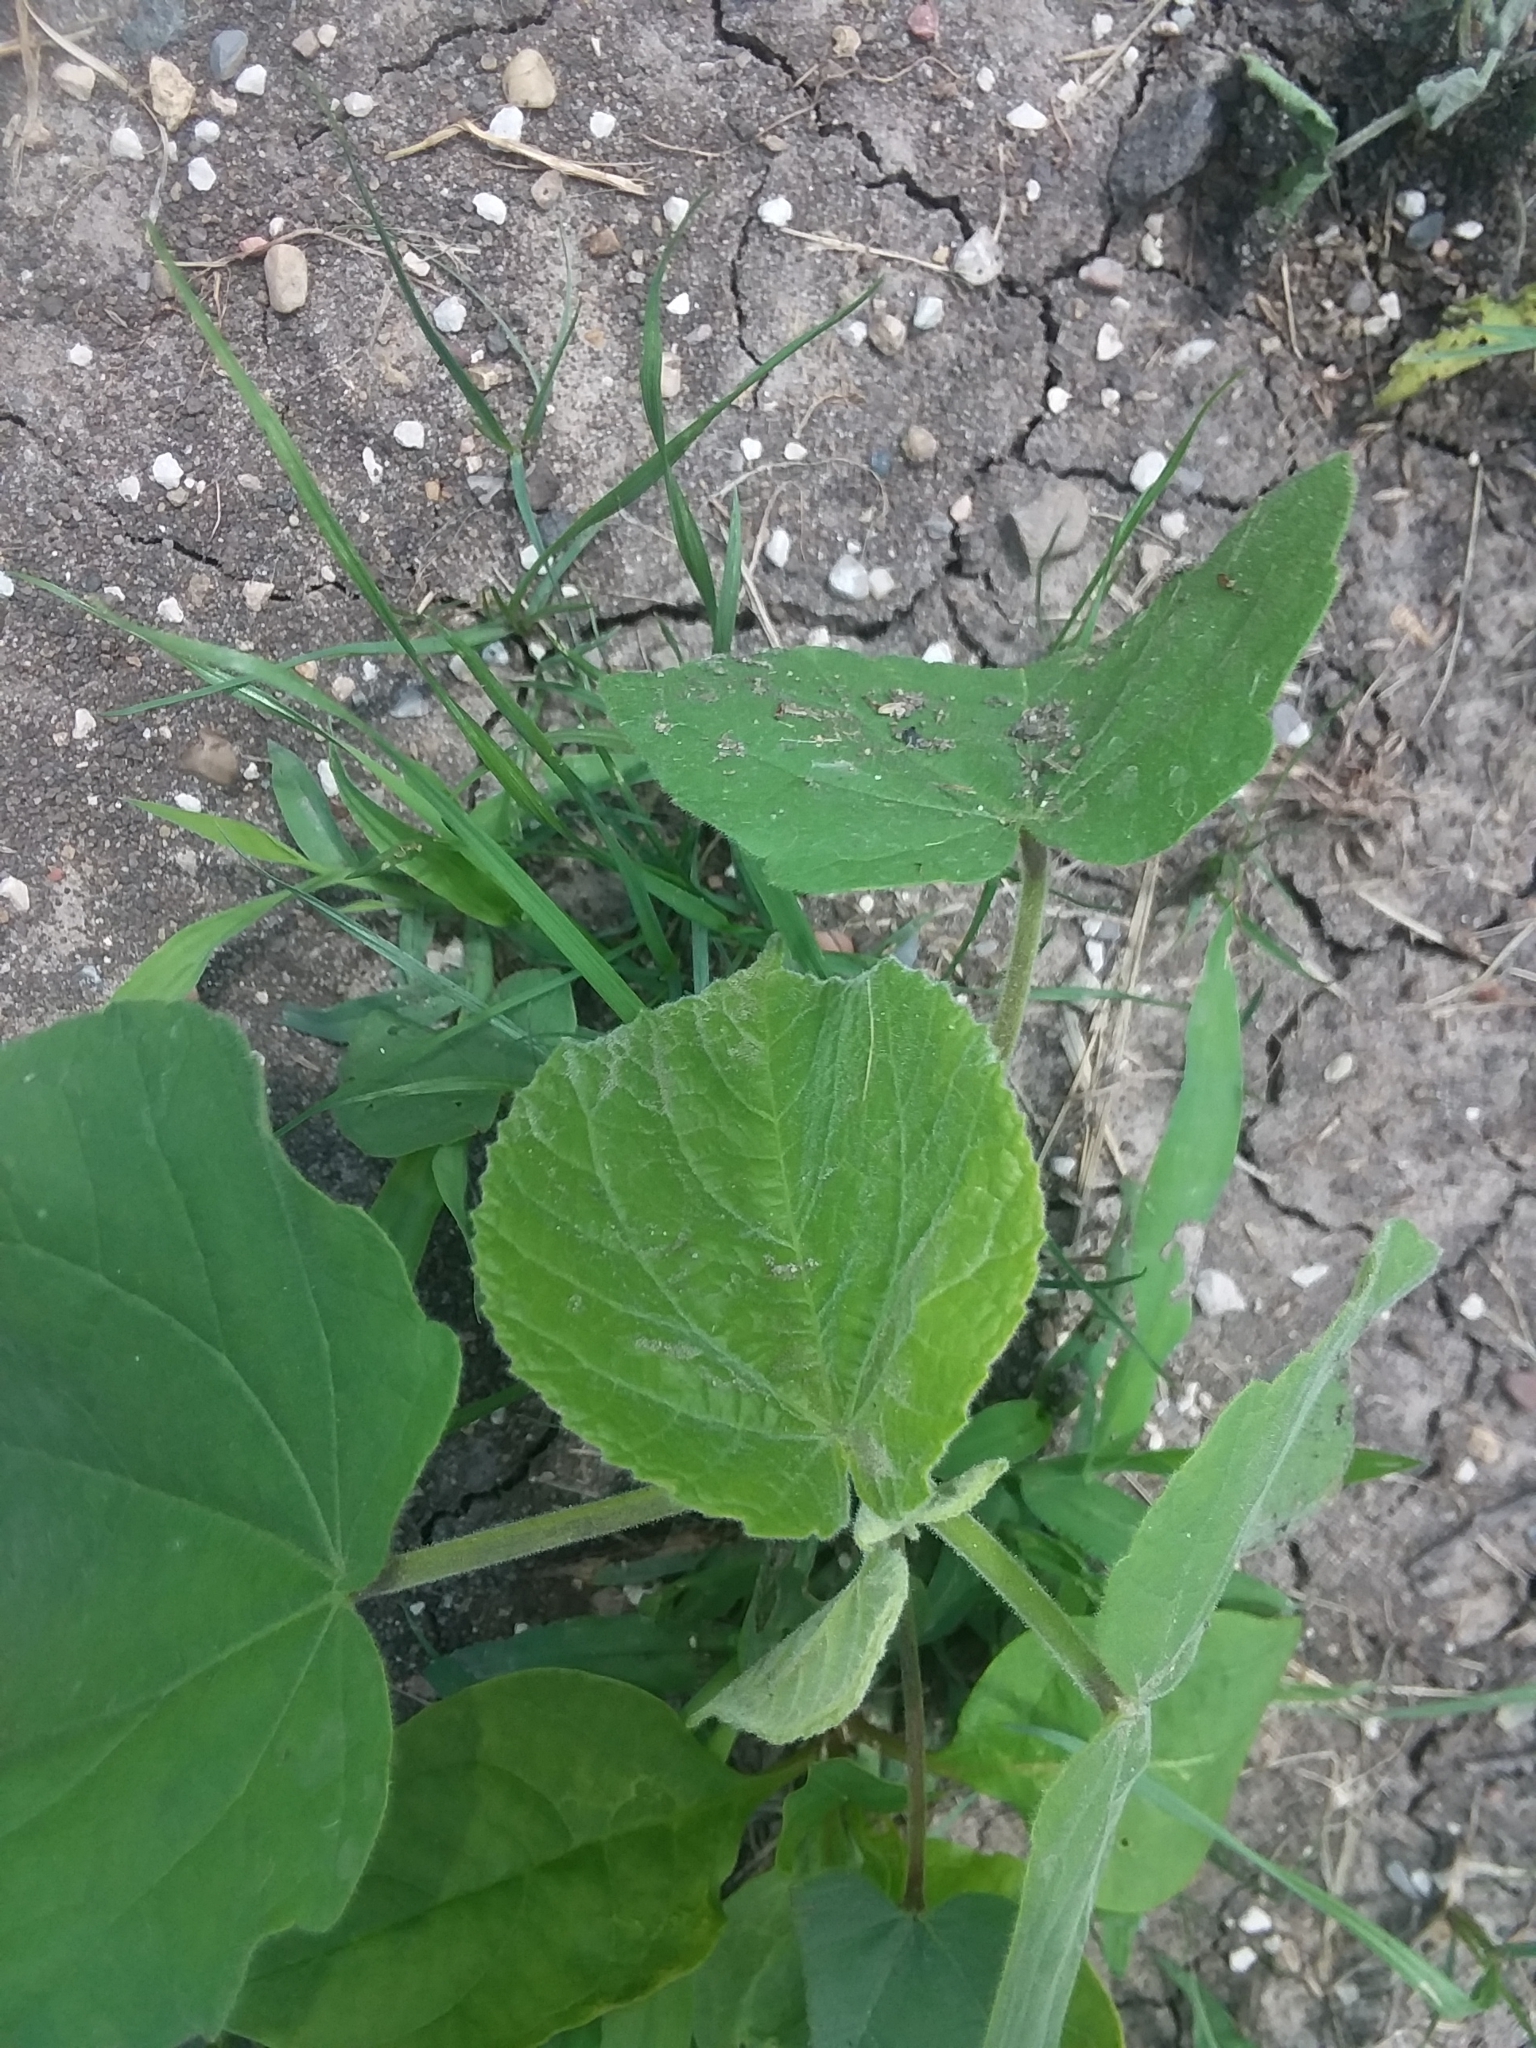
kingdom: Plantae
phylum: Tracheophyta
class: Magnoliopsida
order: Malvales
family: Malvaceae
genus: Abutilon
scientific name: Abutilon theophrasti
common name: Velvetleaf
